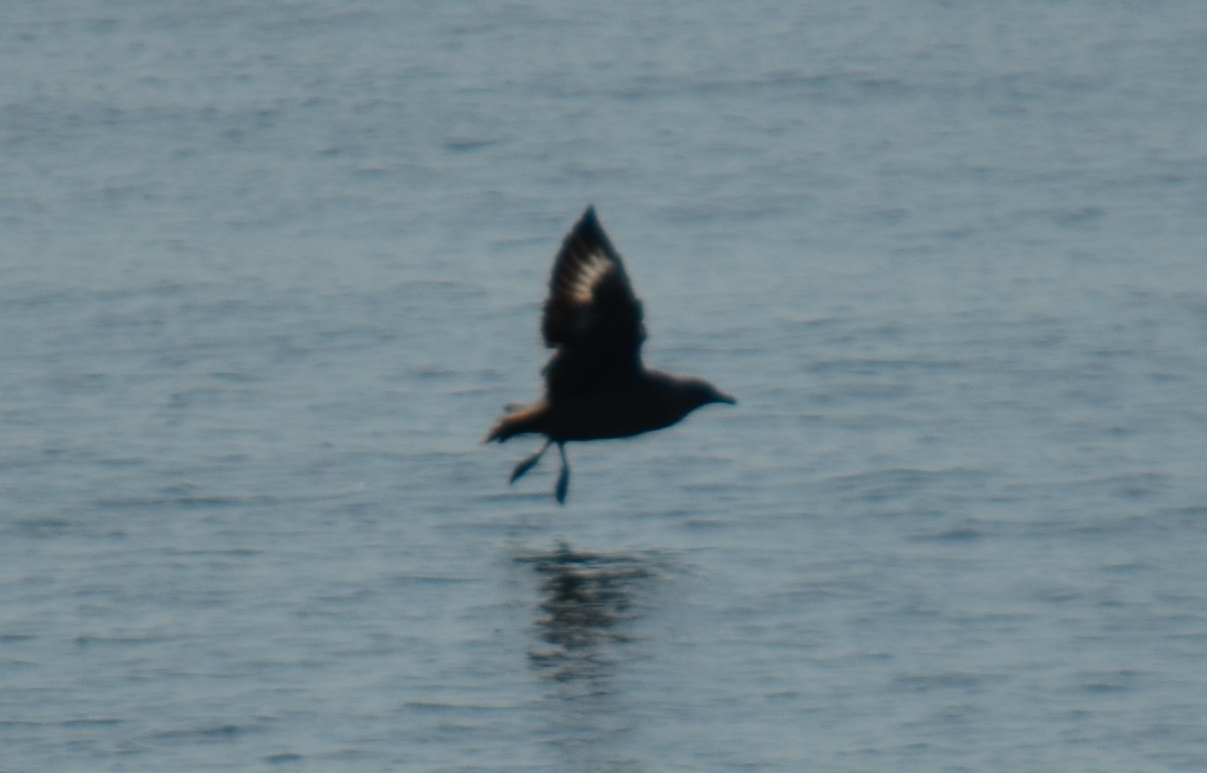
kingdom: Animalia
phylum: Chordata
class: Aves
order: Charadriiformes
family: Stercorariidae
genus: Stercorarius
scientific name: Stercorarius parasiticus
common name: Parasitic jaeger
